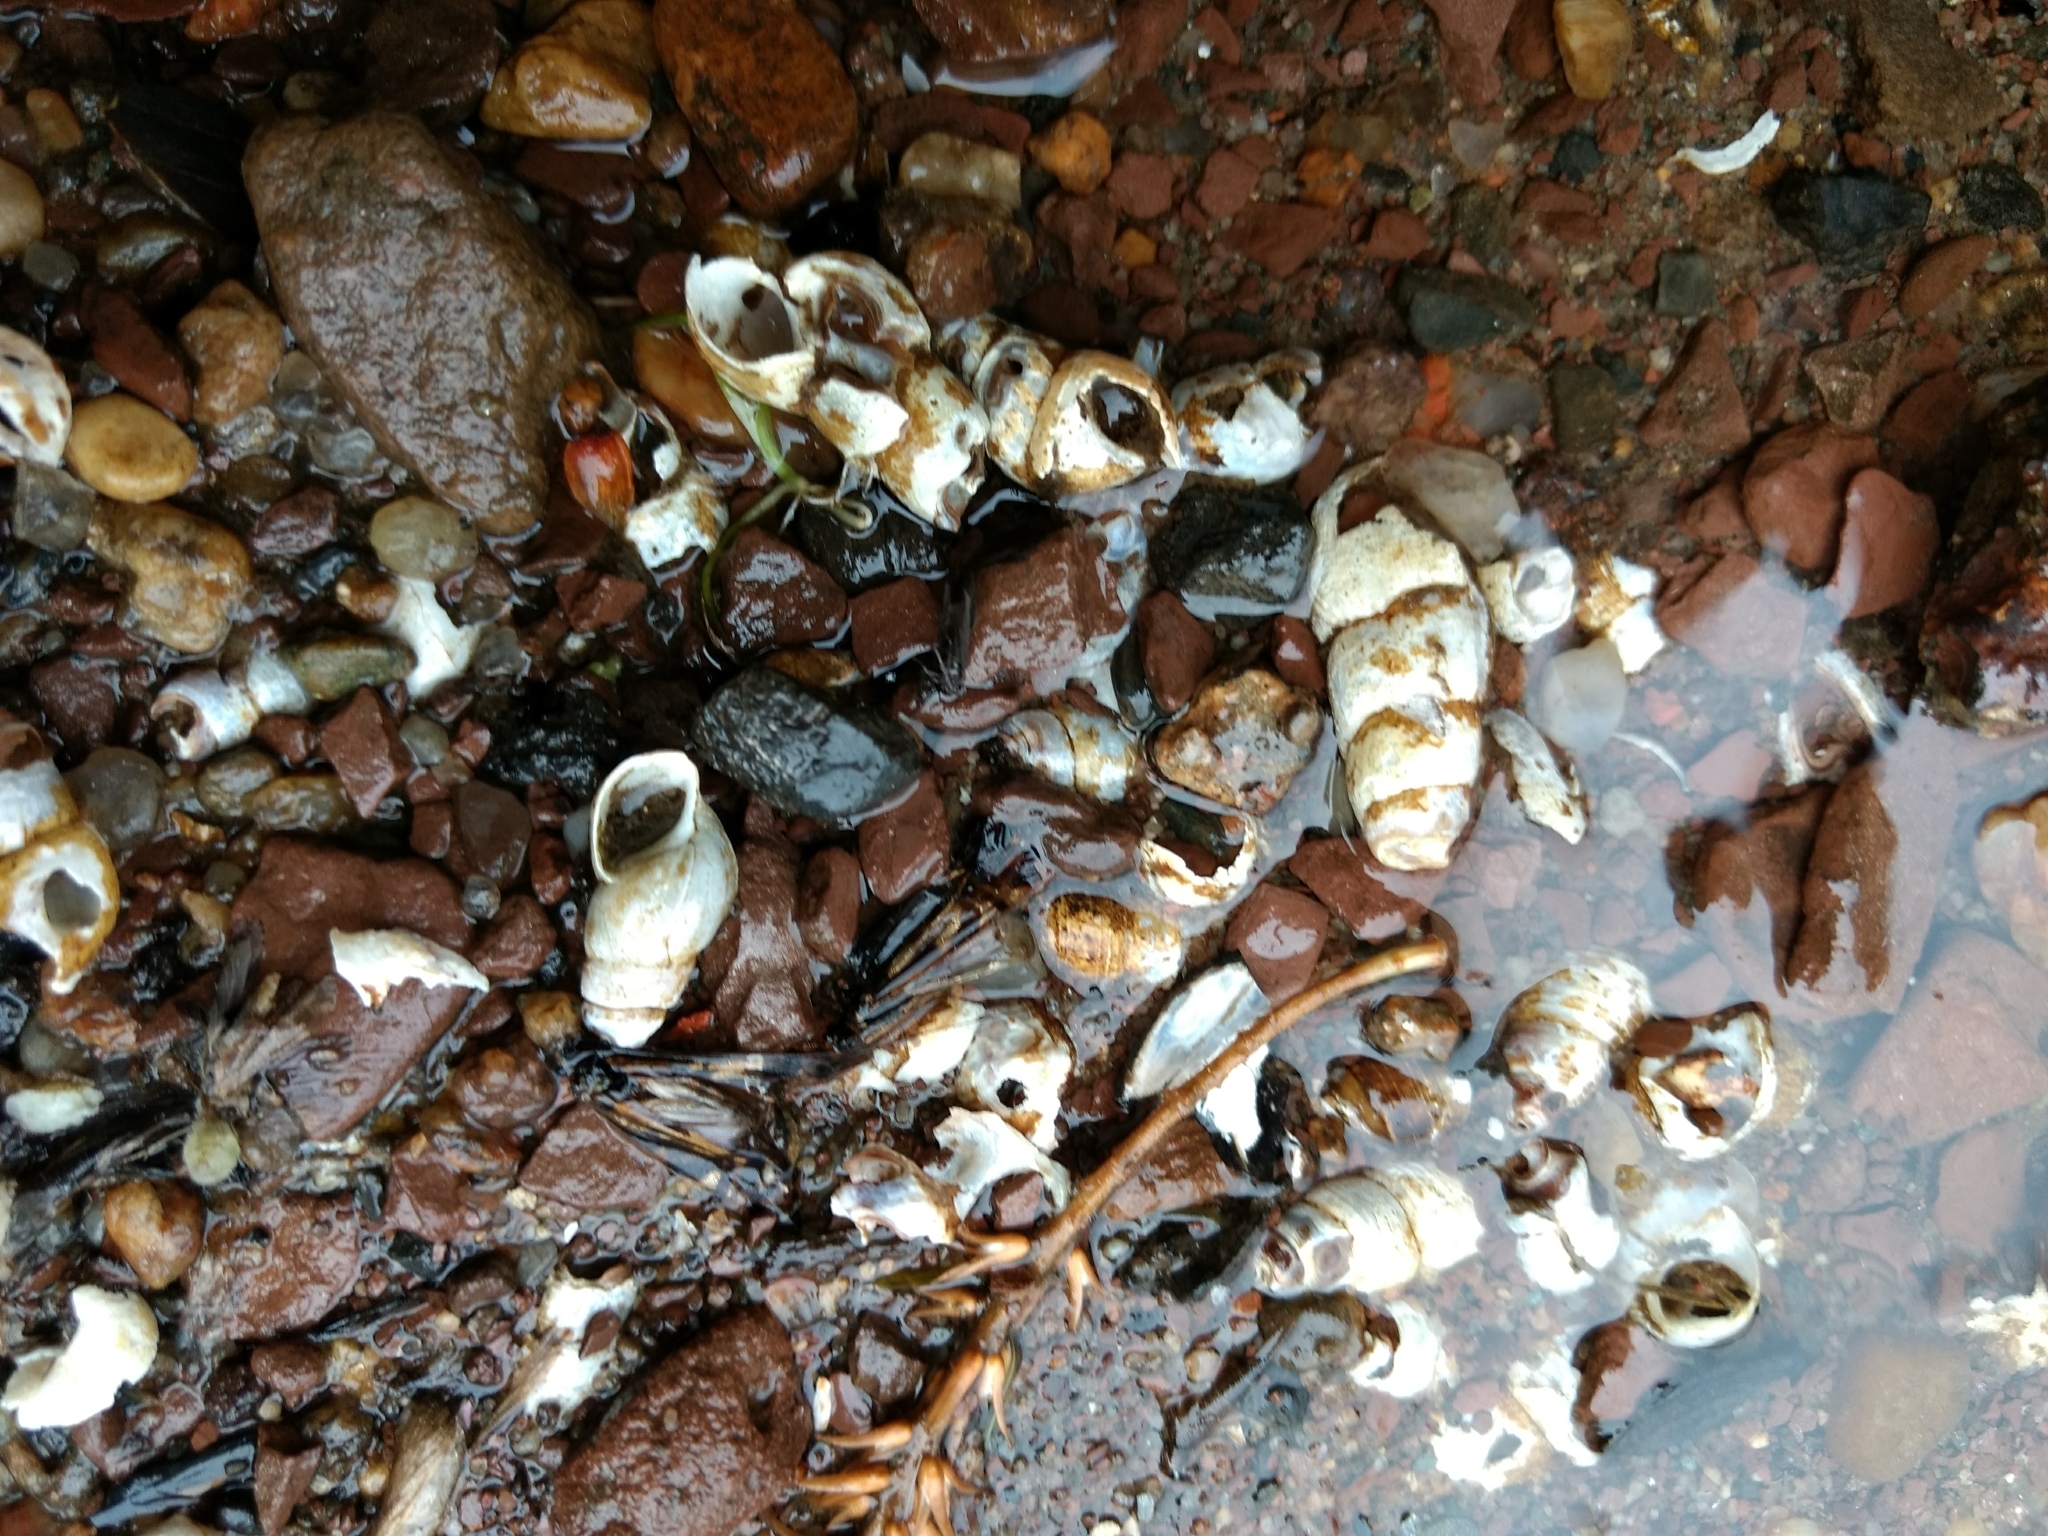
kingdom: Animalia
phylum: Mollusca
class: Gastropoda
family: Pleuroceridae
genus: Elimia
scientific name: Elimia virginica
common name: Piedmont elimia
